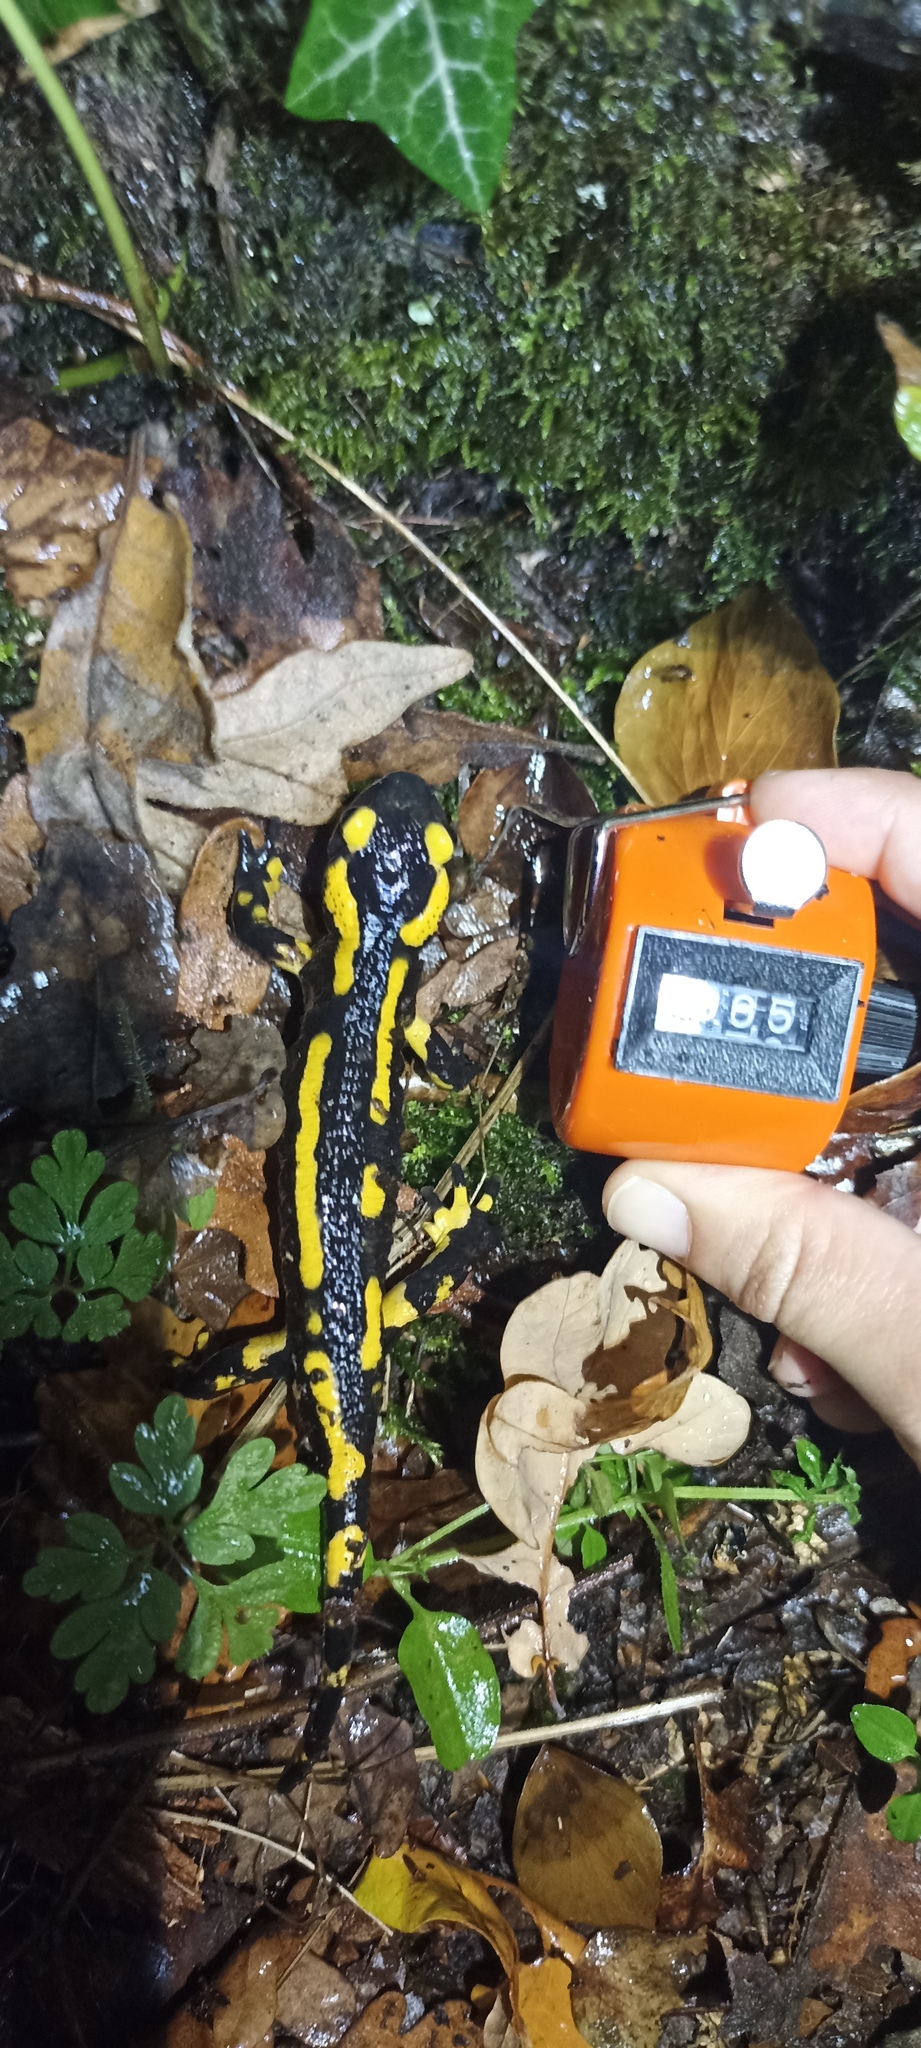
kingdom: Animalia
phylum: Chordata
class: Amphibia
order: Caudata
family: Salamandridae
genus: Salamandra
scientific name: Salamandra salamandra
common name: Fire salamander
